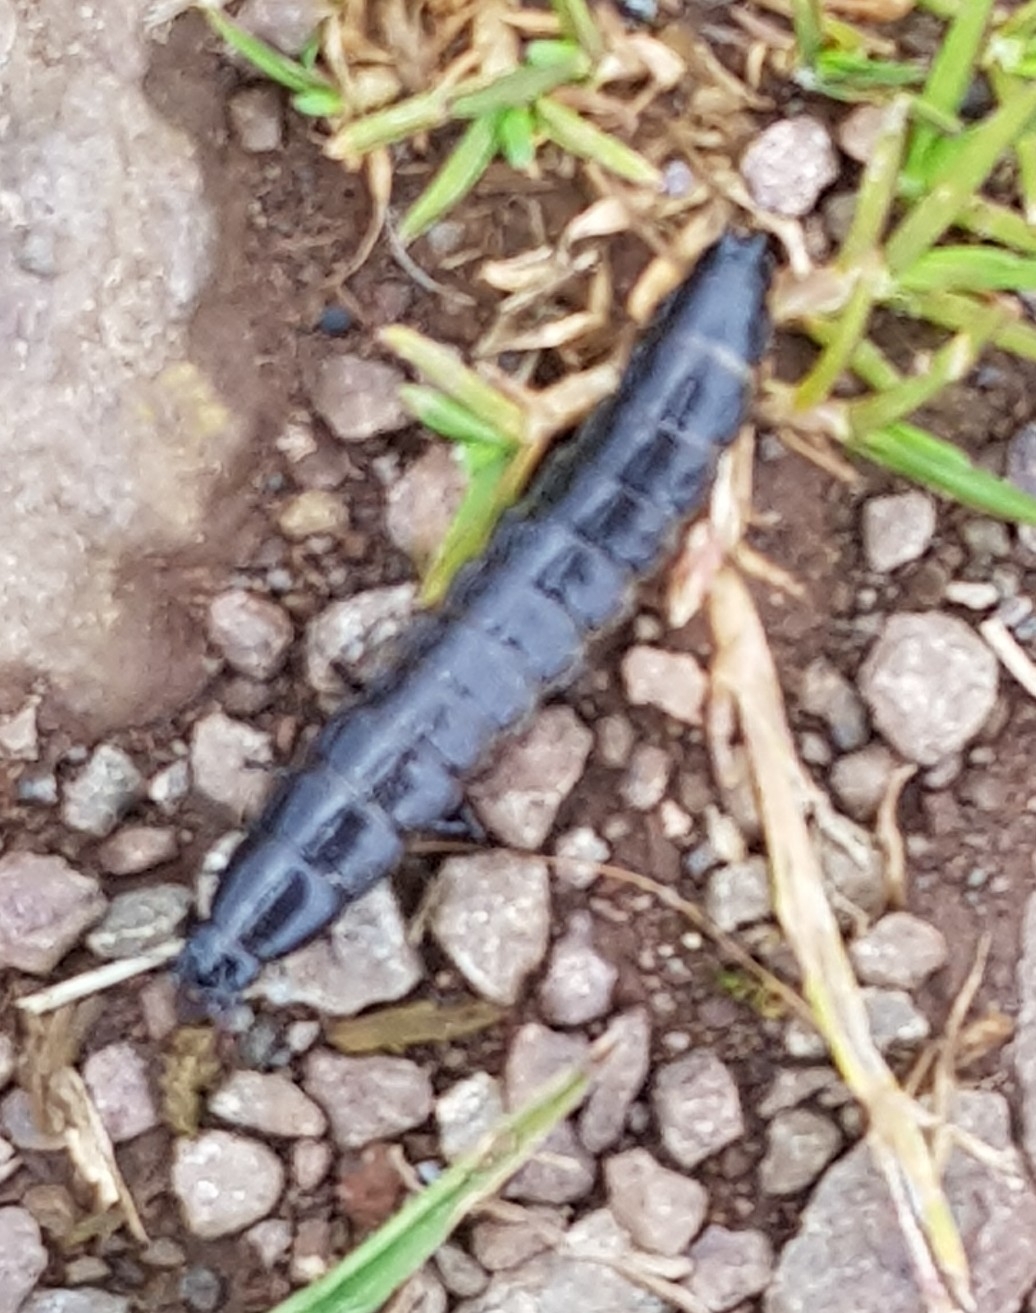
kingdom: Animalia
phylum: Arthropoda
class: Insecta
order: Coleoptera
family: Carabidae
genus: Carabus
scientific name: Carabus
